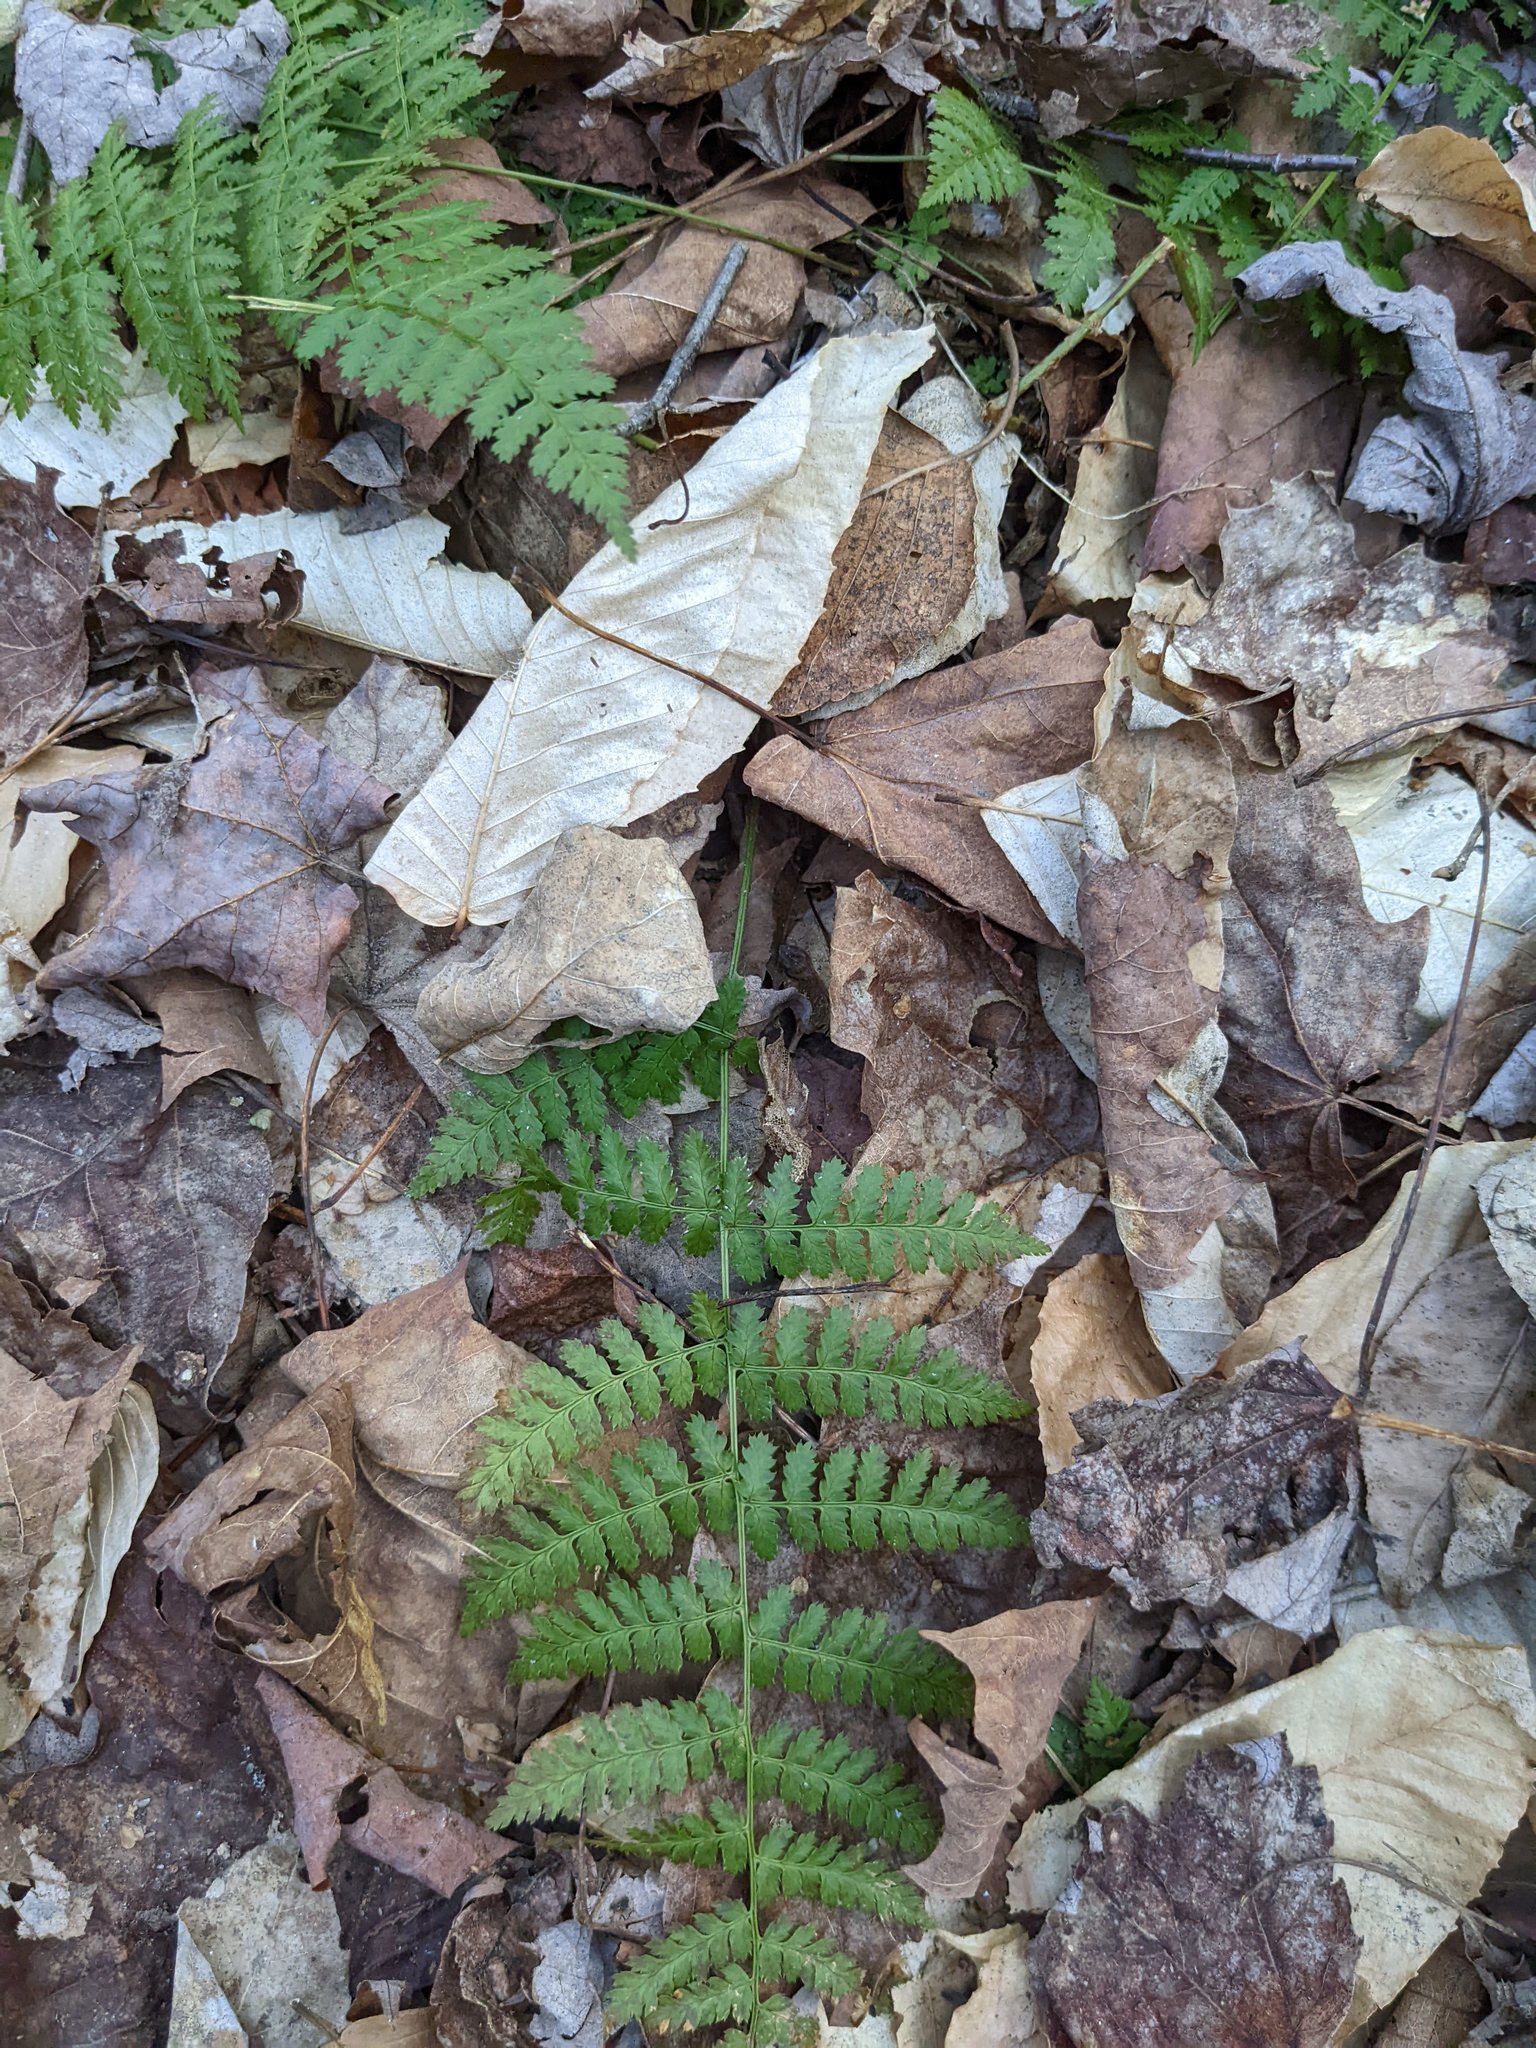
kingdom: Plantae
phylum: Tracheophyta
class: Polypodiopsida
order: Polypodiales
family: Dryopteridaceae
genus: Dryopteris
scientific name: Dryopteris intermedia
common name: Evergreen wood fern
